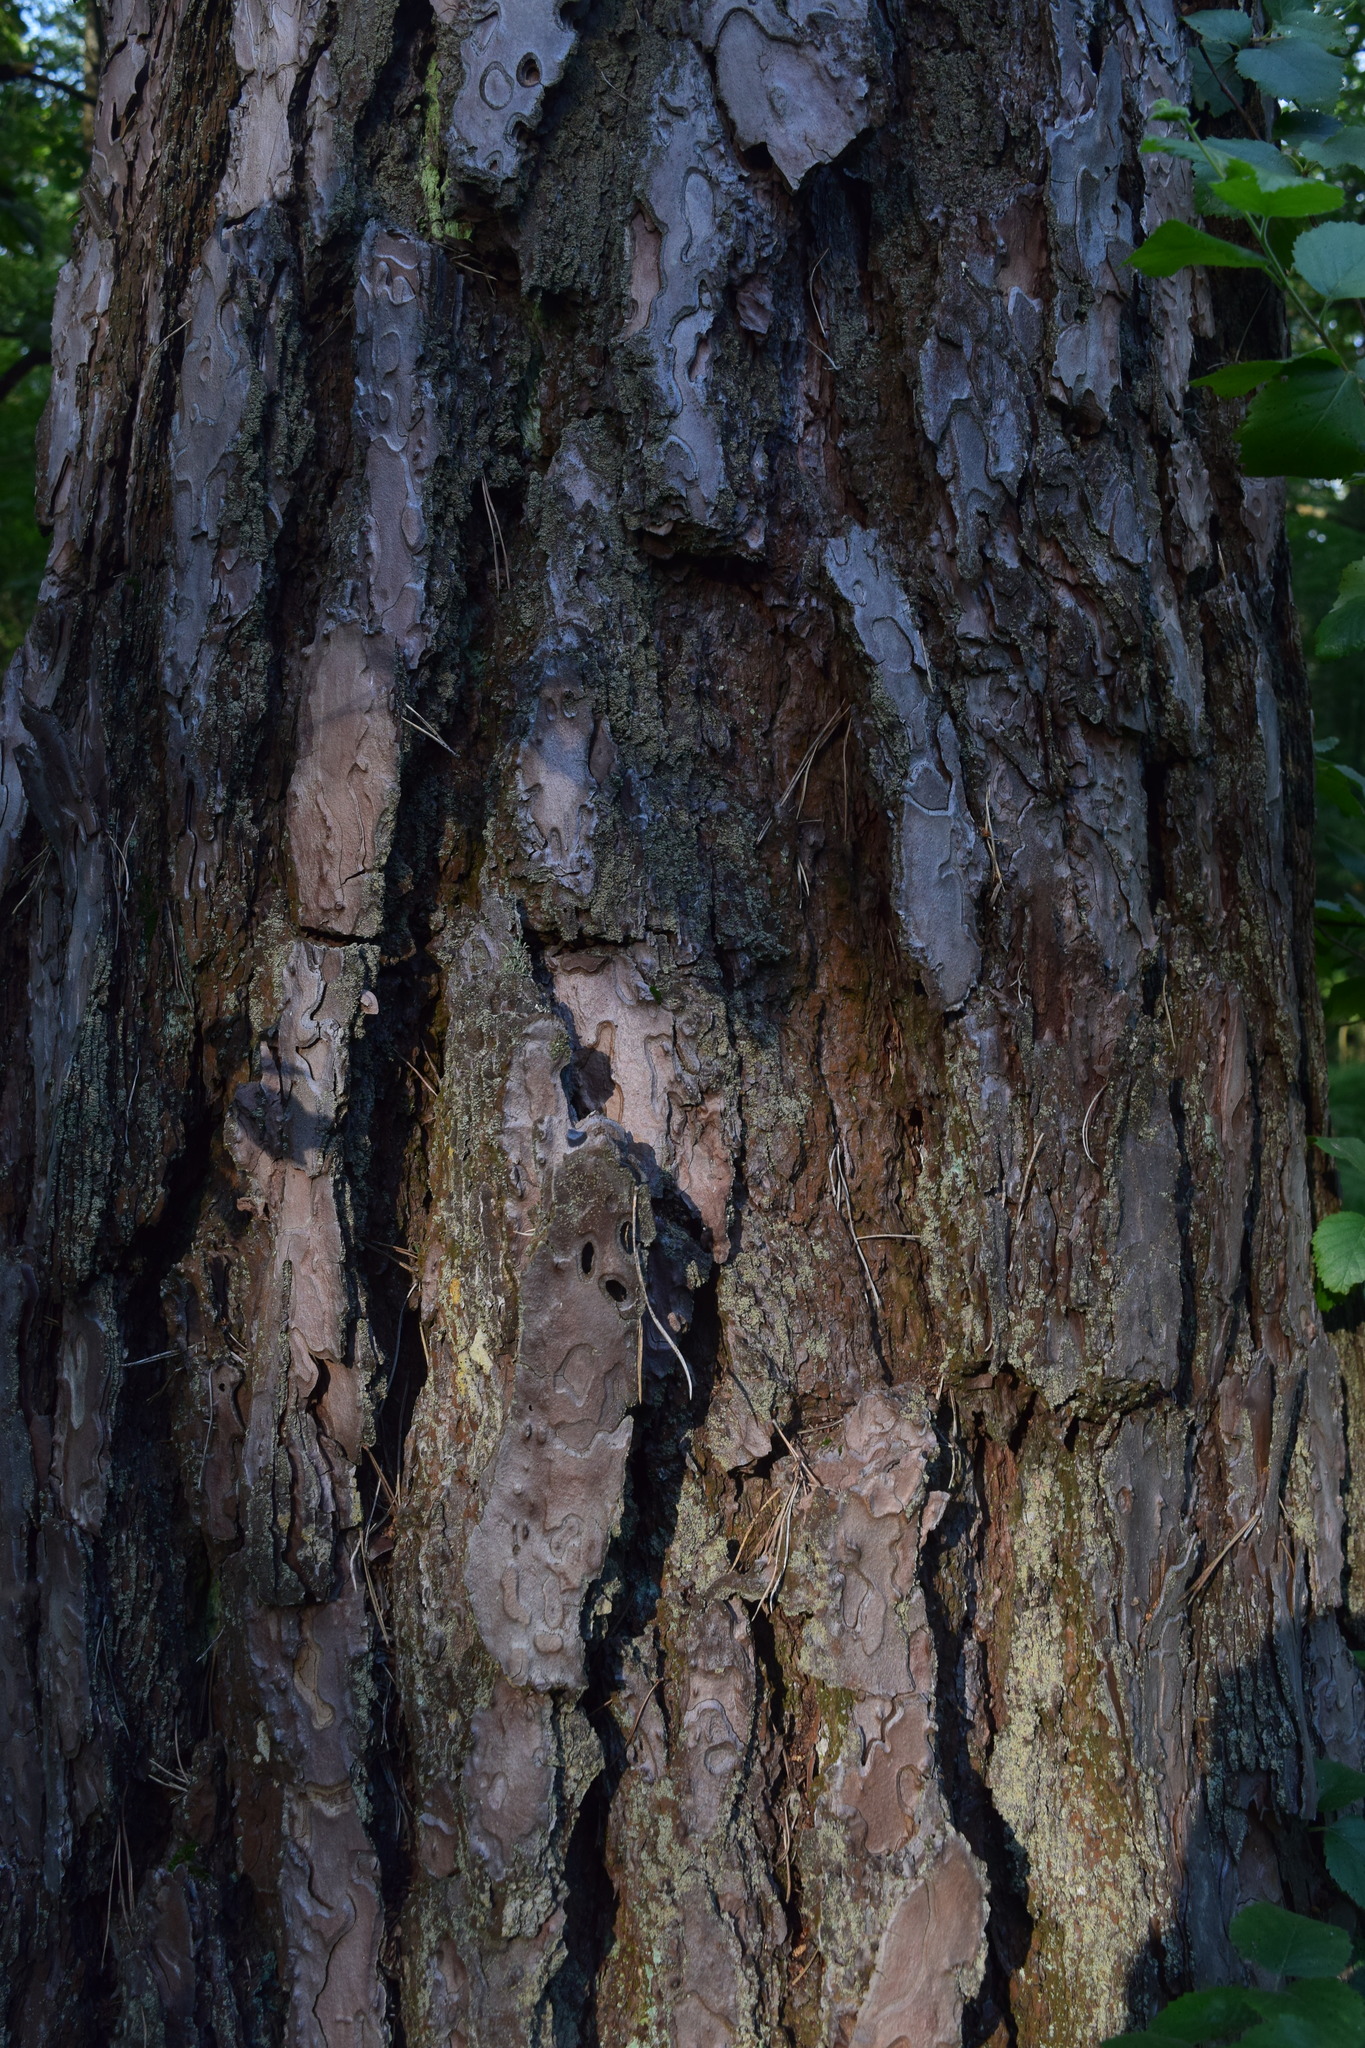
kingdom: Plantae
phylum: Tracheophyta
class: Pinopsida
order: Pinales
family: Pinaceae
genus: Pinus
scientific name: Pinus sylvestris
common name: Scots pine
